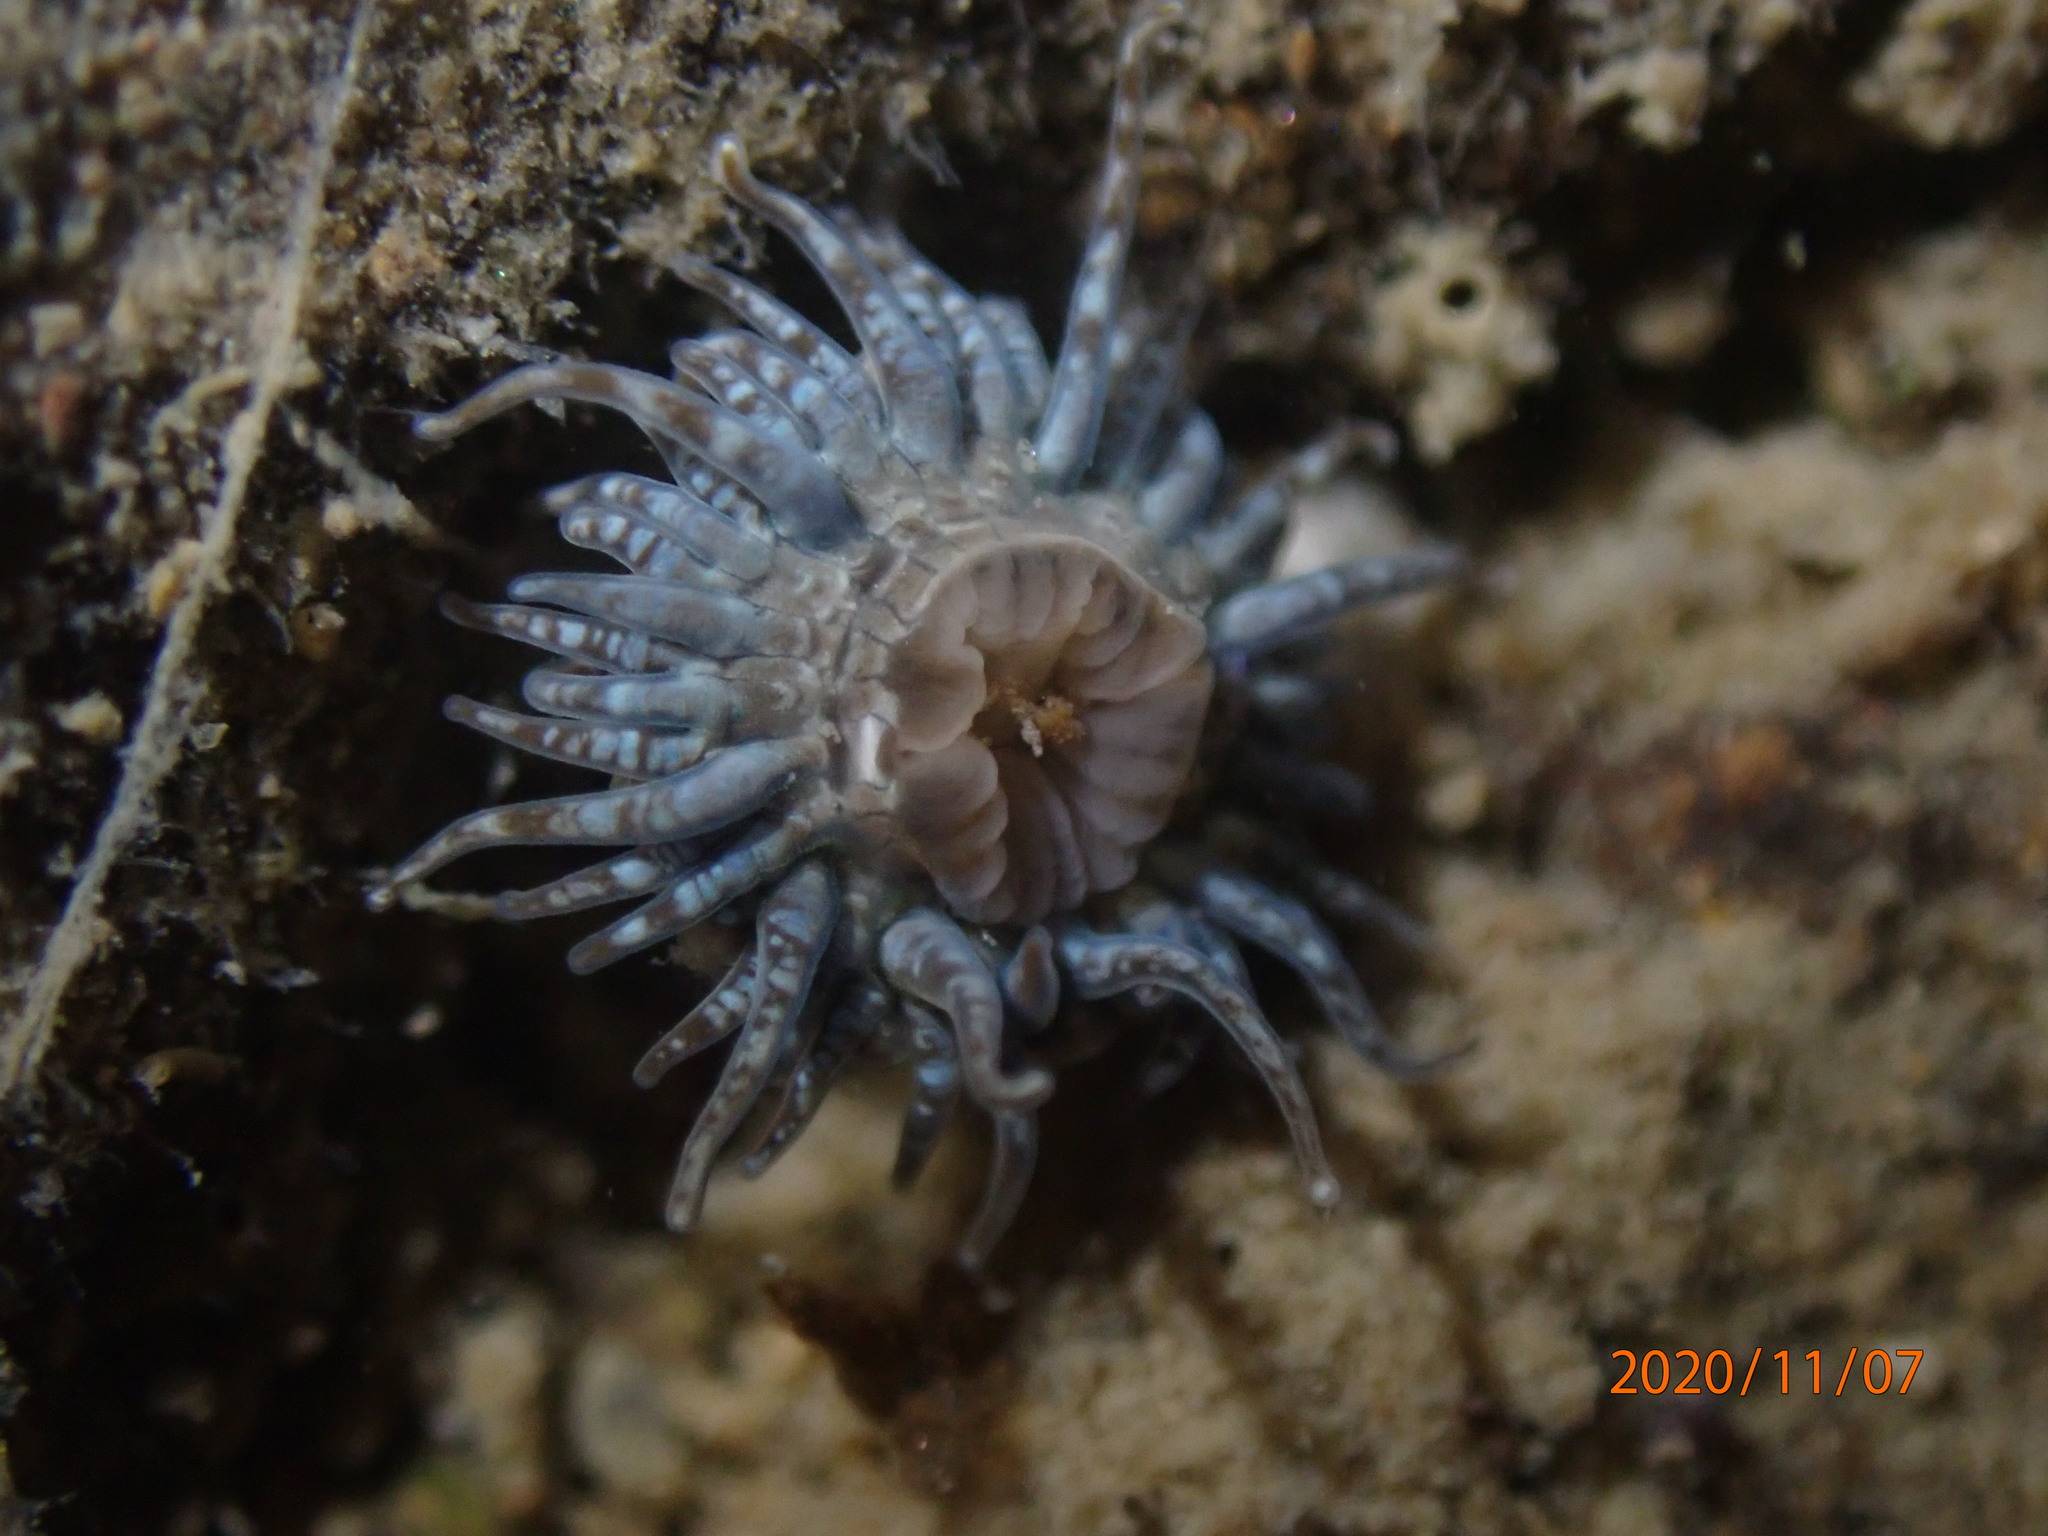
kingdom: Animalia
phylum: Cnidaria
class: Anthozoa
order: Actiniaria
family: Actiniidae
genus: Anthopleura
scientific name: Anthopleura hermaphroditica
